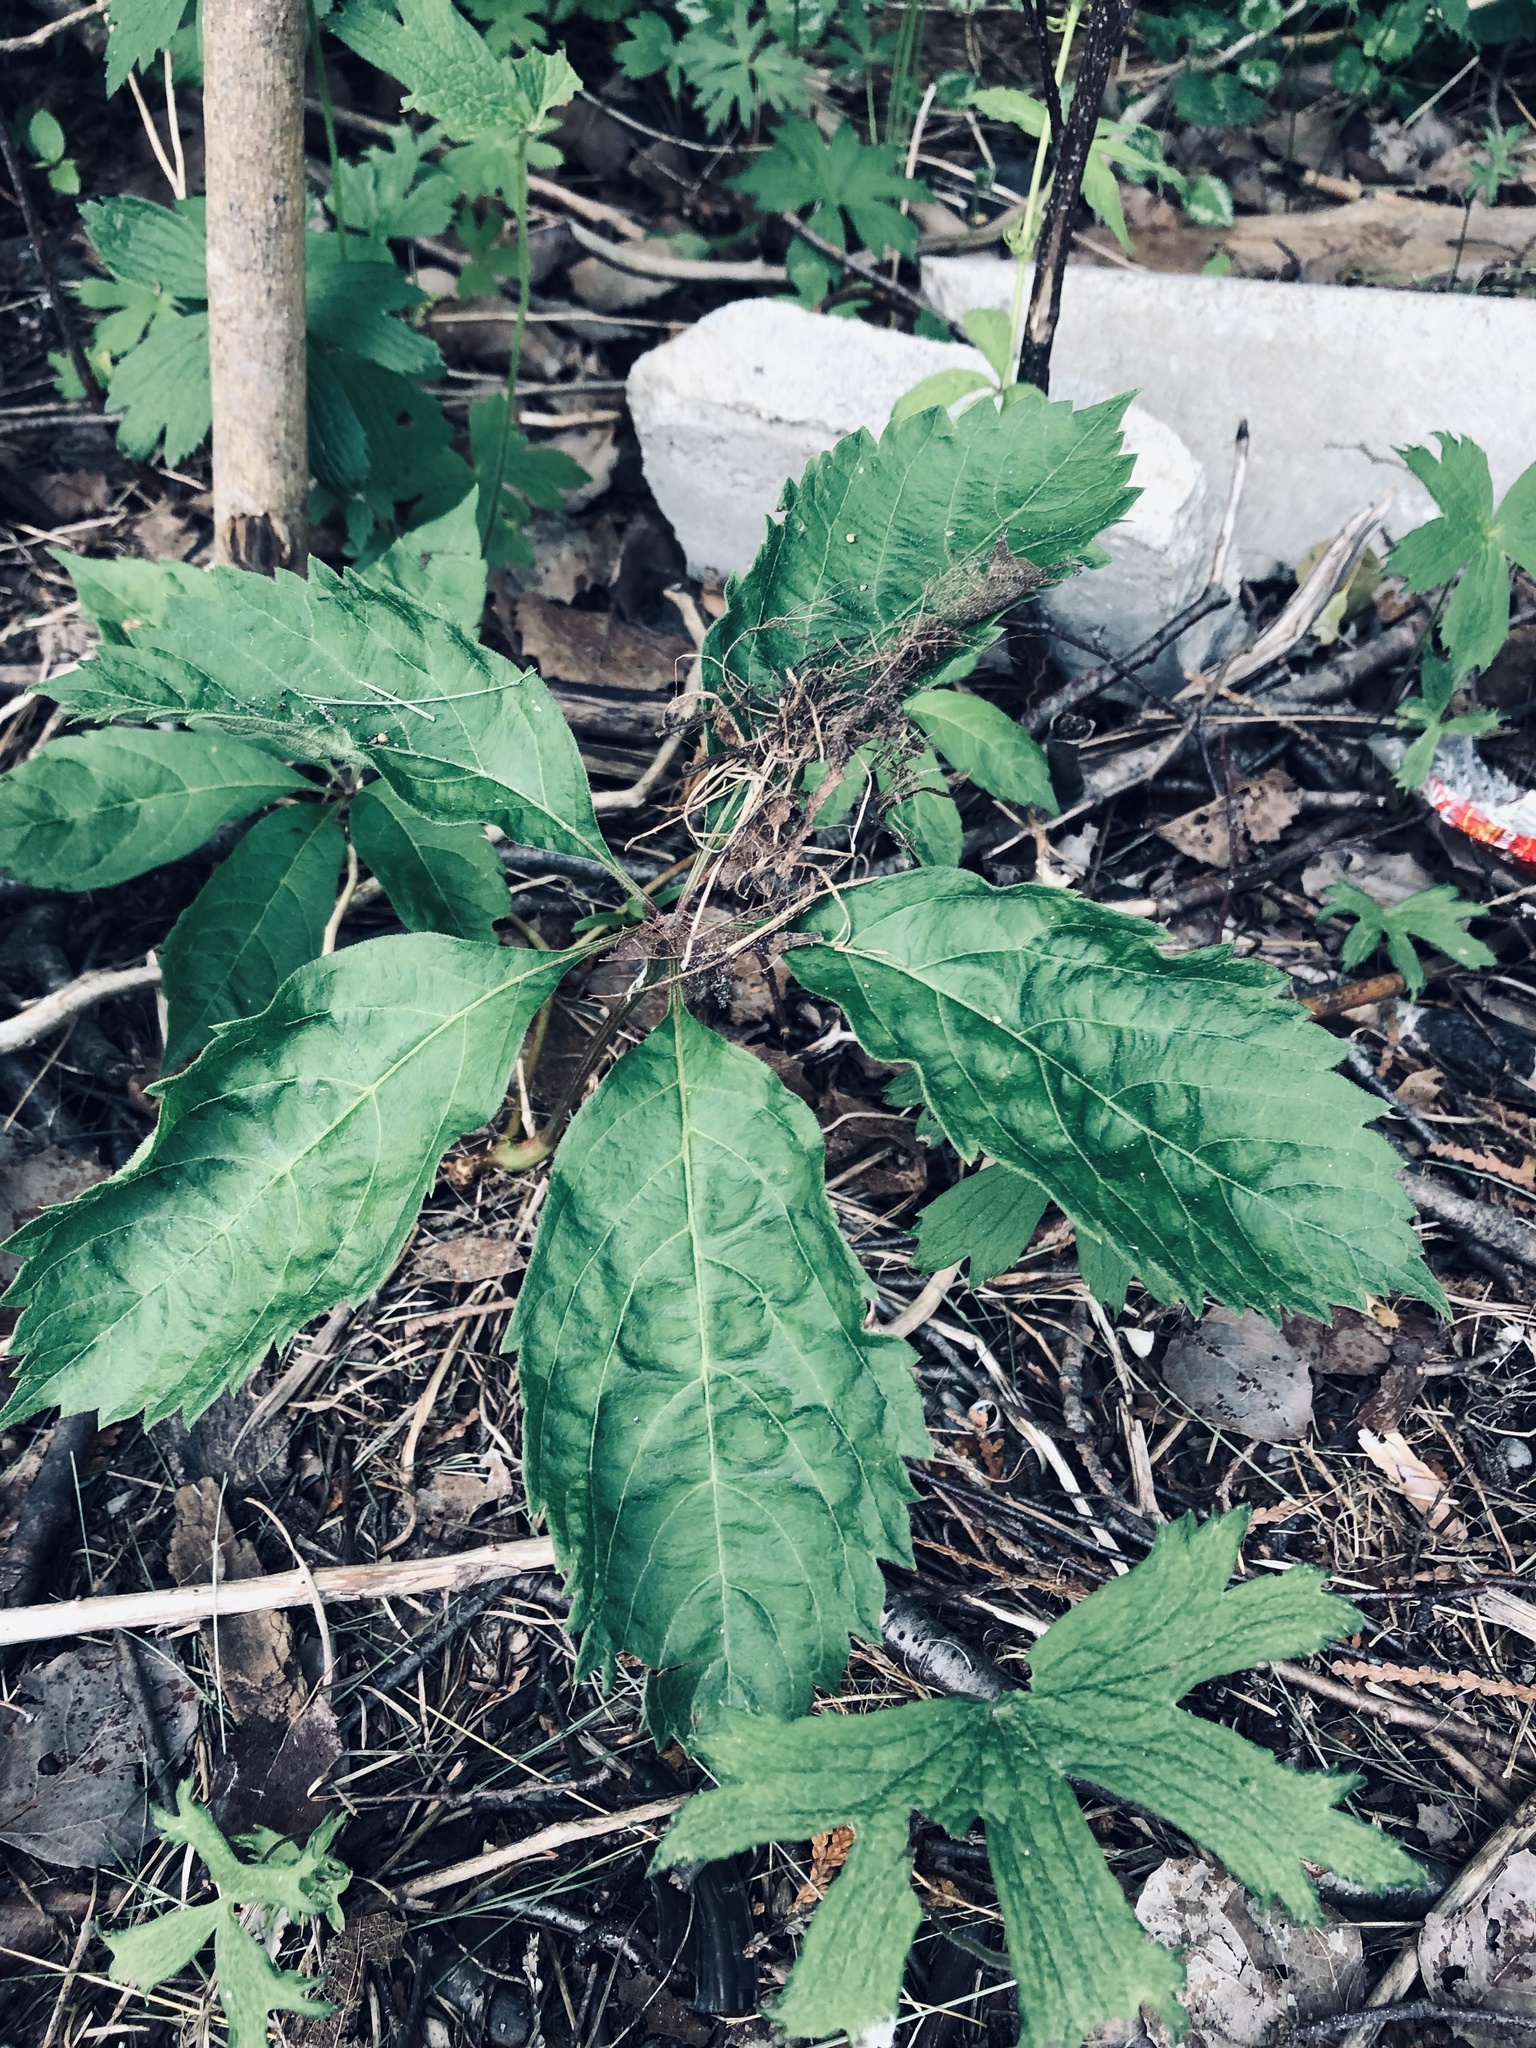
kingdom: Plantae
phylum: Tracheophyta
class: Magnoliopsida
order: Vitales
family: Vitaceae
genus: Parthenocissus
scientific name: Parthenocissus inserta
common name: False virginia-creeper
